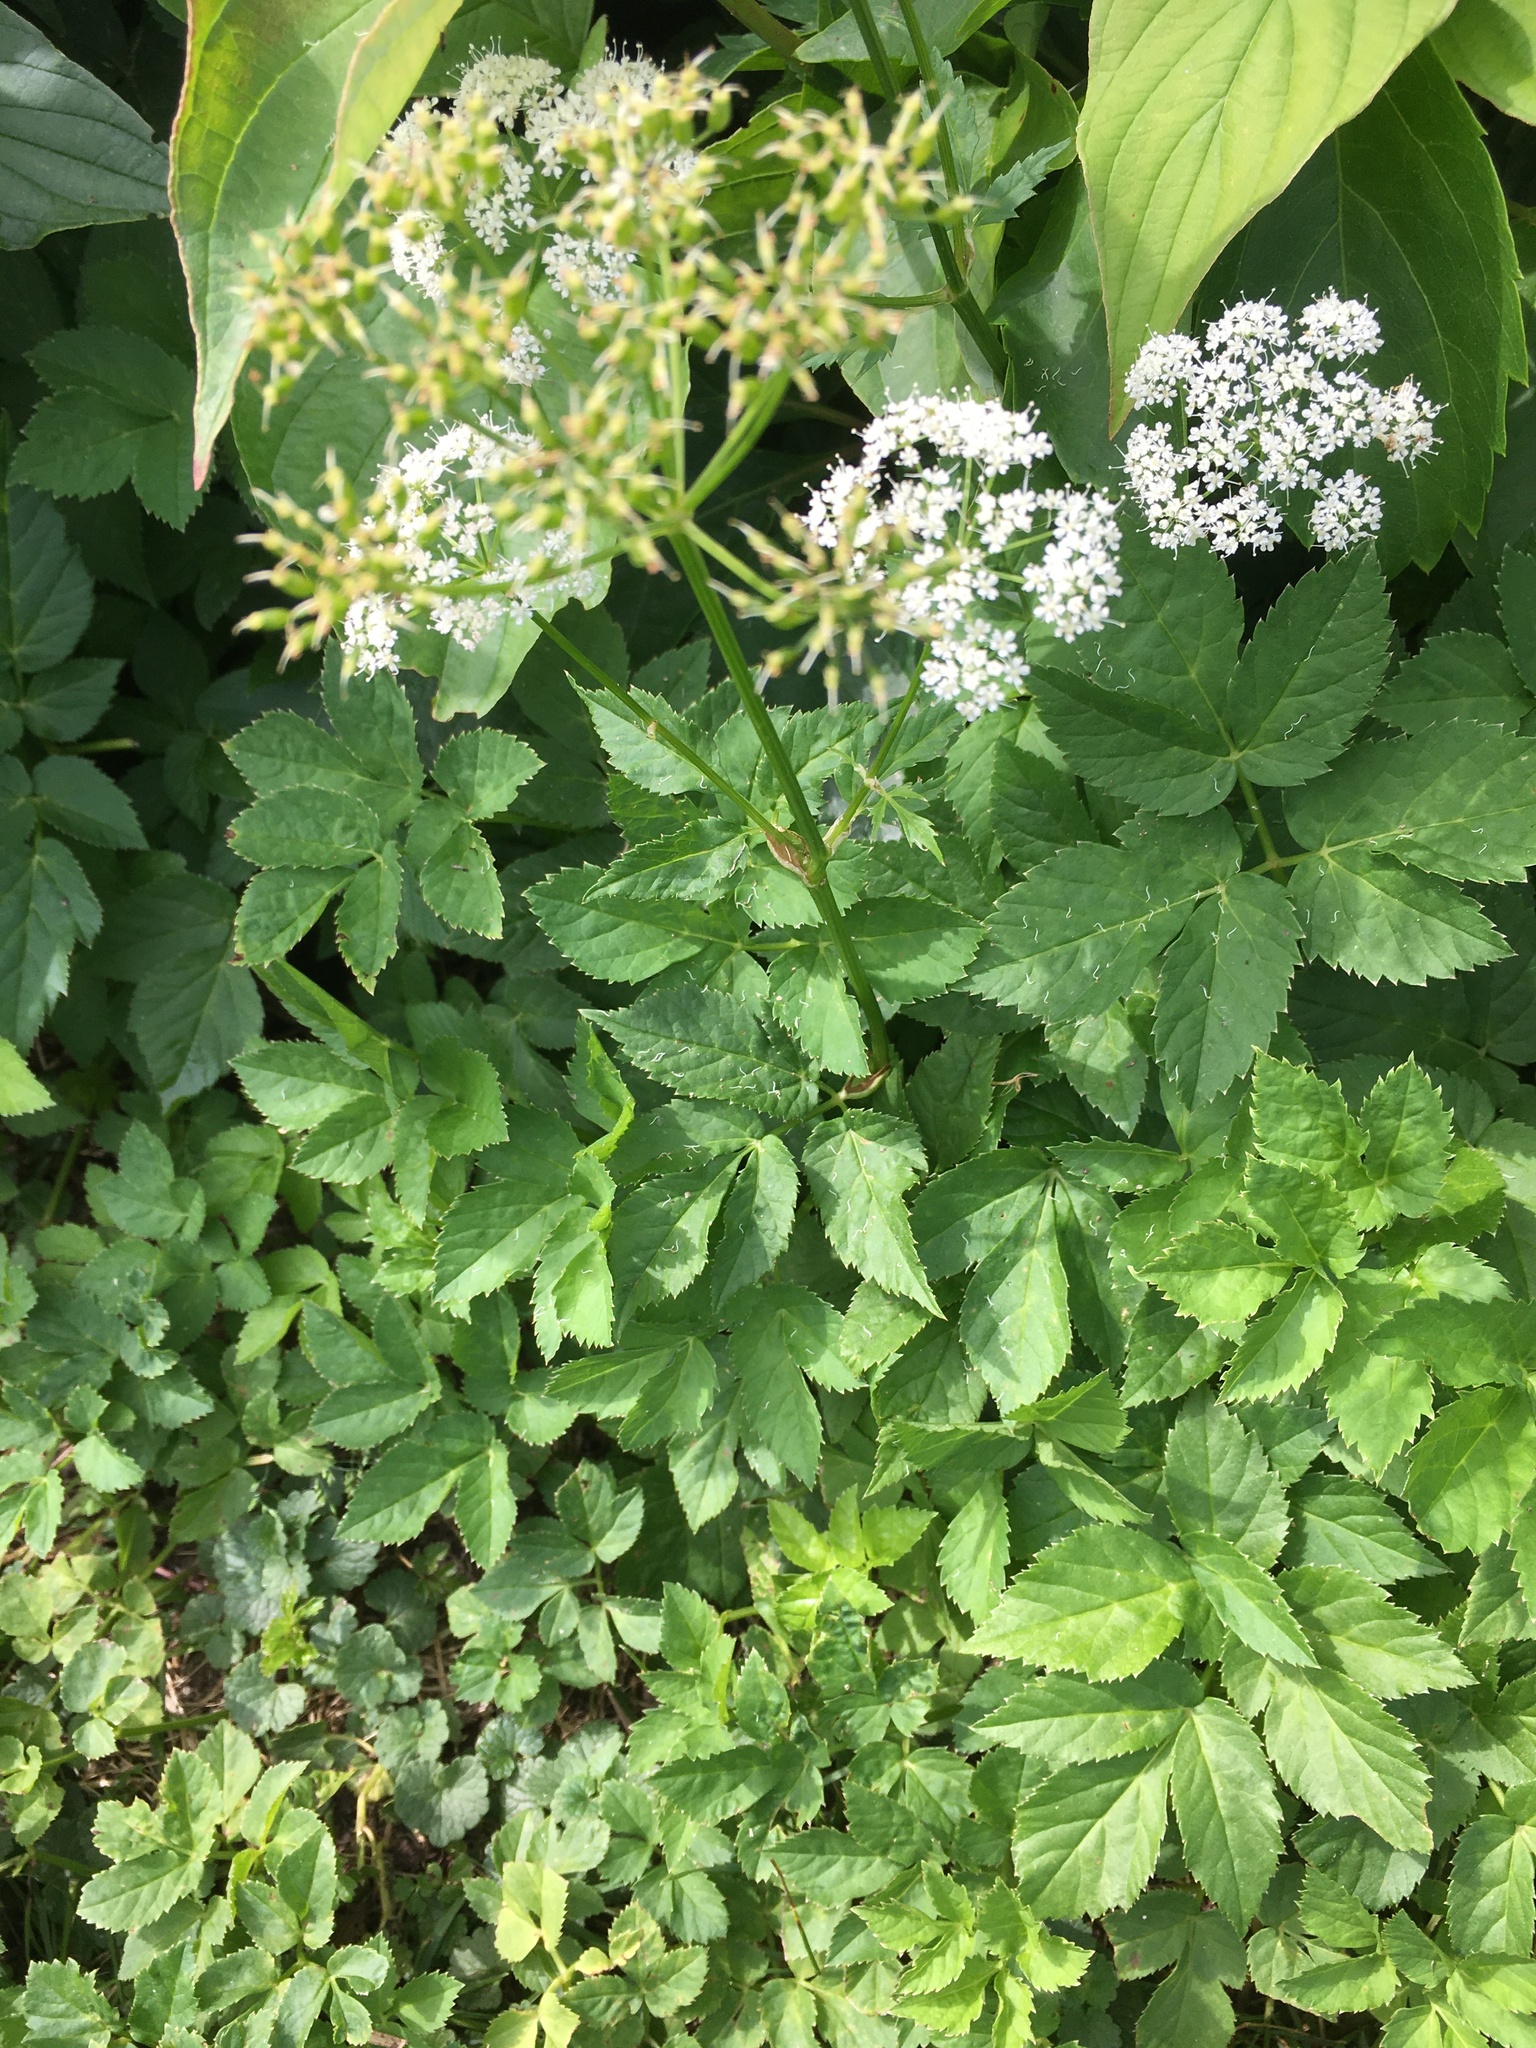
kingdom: Plantae
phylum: Tracheophyta
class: Magnoliopsida
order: Apiales
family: Apiaceae
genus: Aegopodium
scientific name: Aegopodium podagraria
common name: Ground-elder
